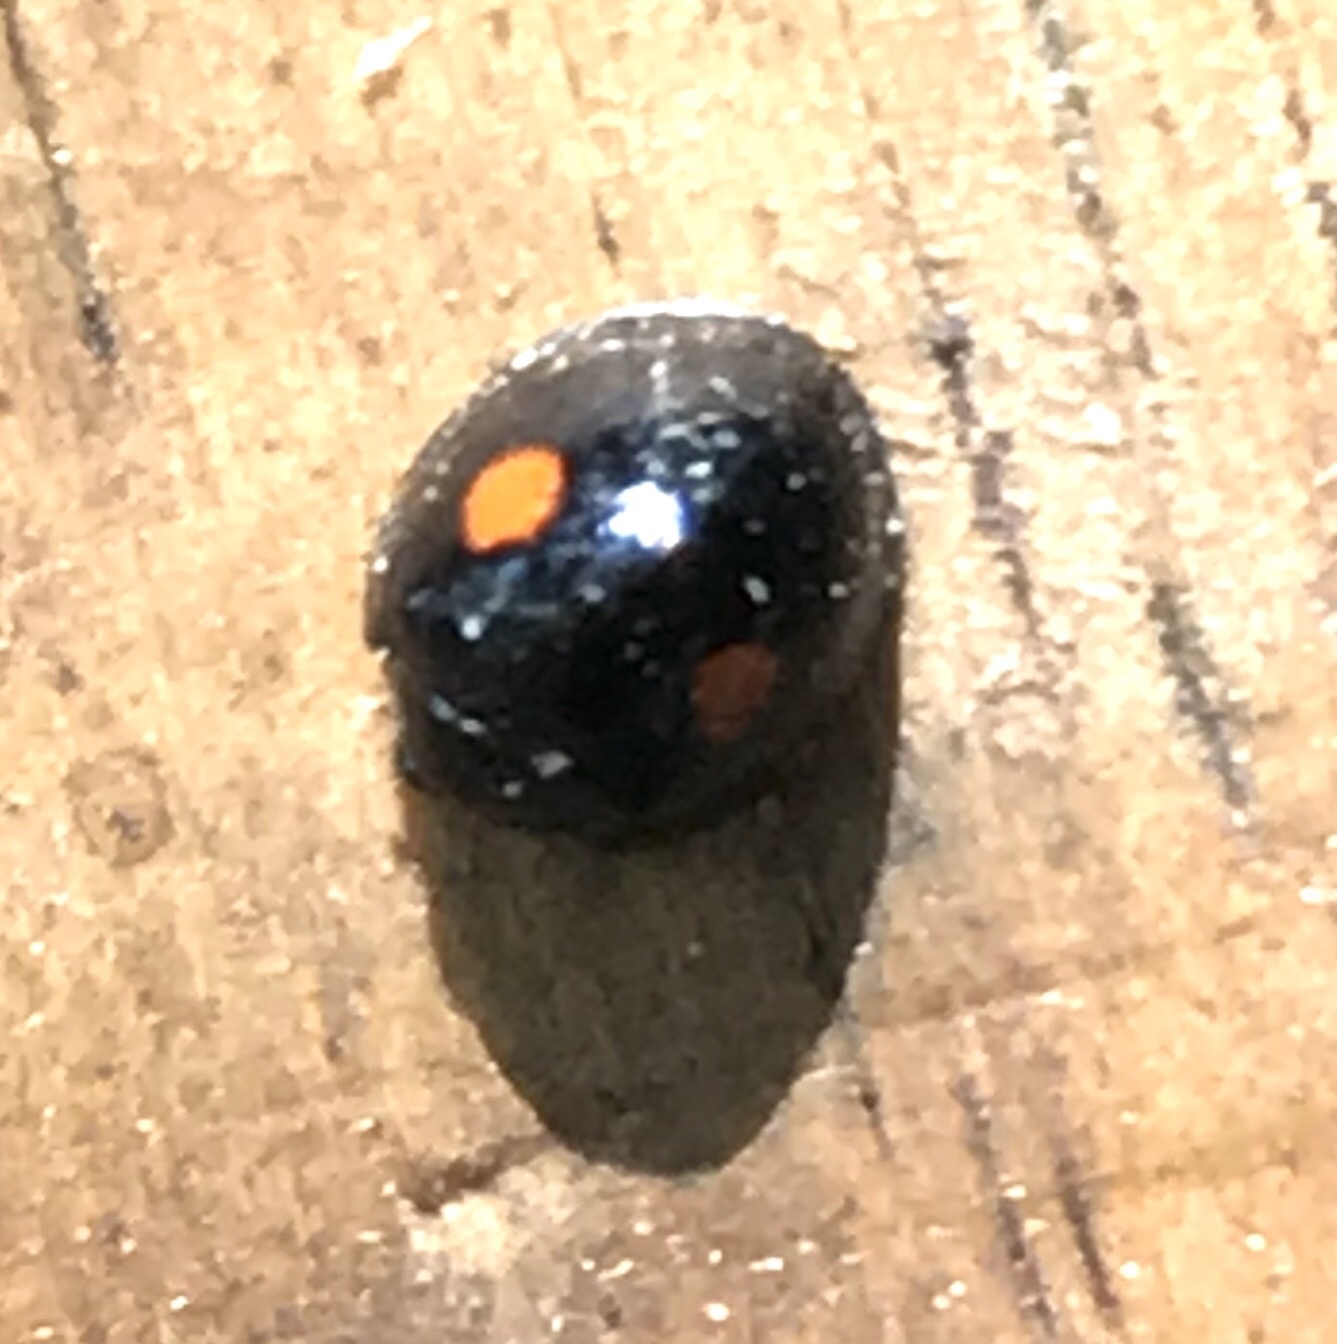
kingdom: Animalia
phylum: Arthropoda
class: Insecta
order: Coleoptera
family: Coccinellidae
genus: Chilocorus
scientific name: Chilocorus stigma
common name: Twicestabbed lady beetle
